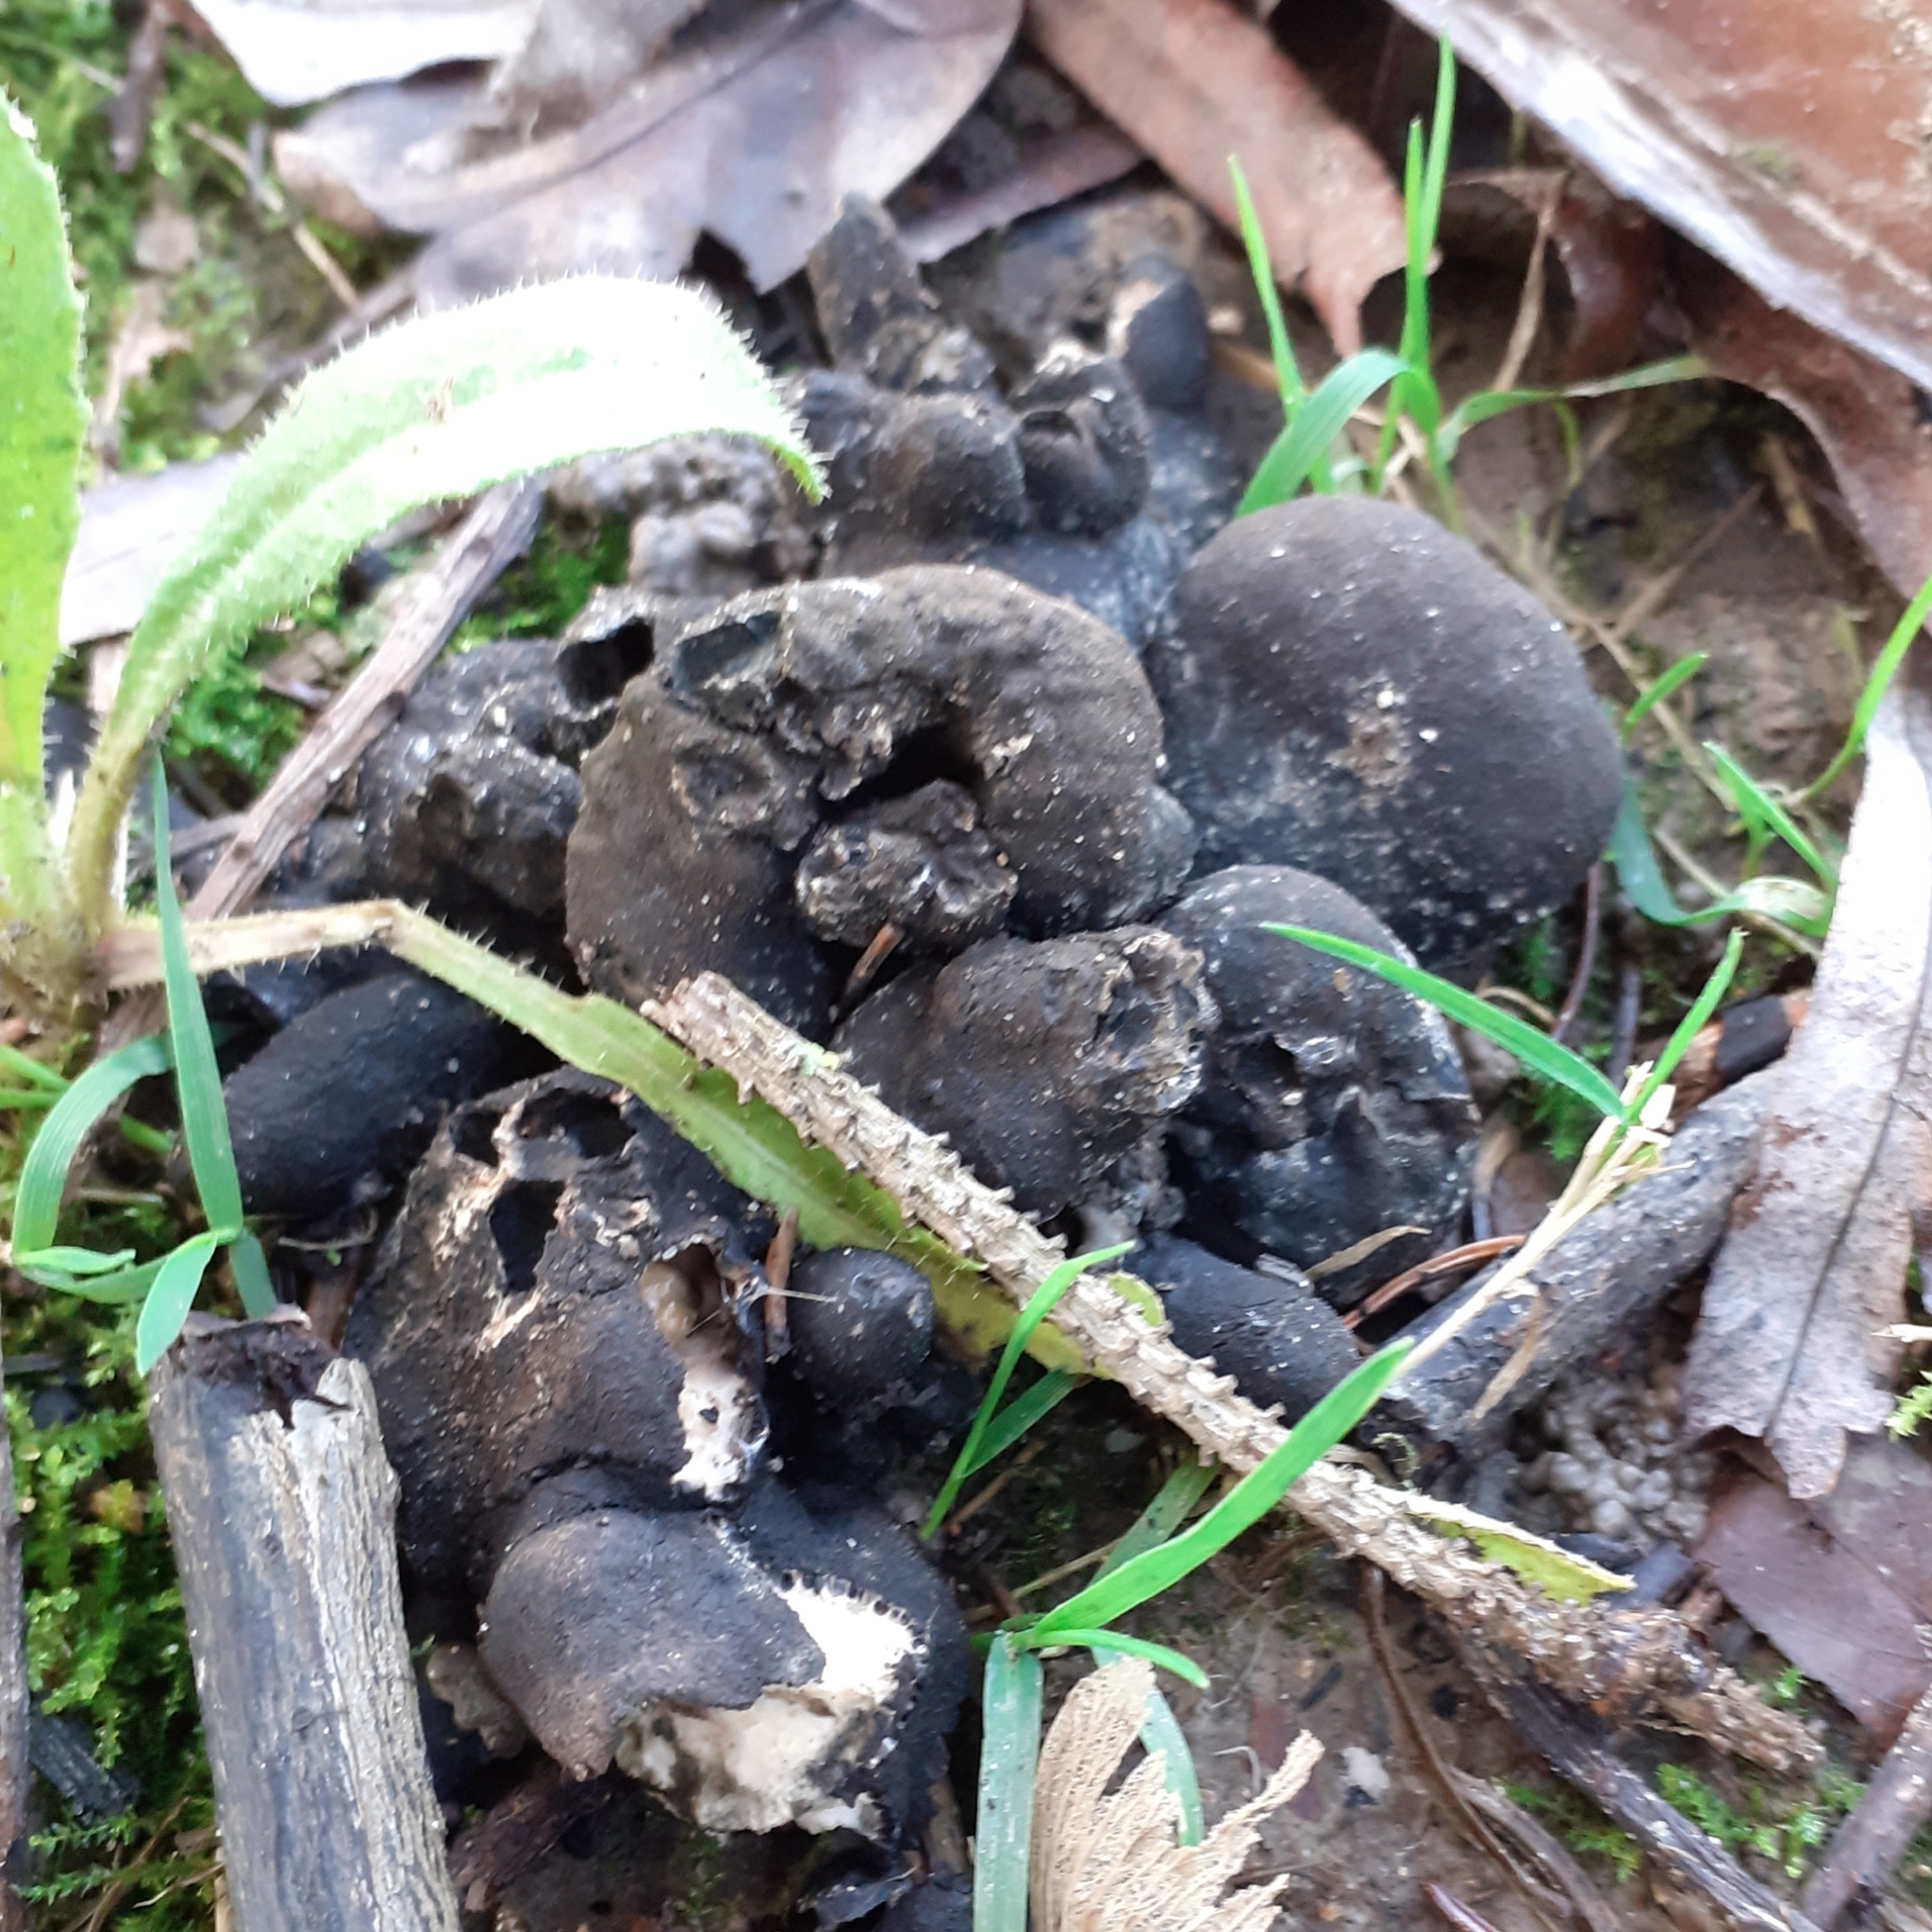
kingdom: Fungi
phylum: Ascomycota
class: Sordariomycetes
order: Xylariales
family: Xylariaceae
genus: Xylaria
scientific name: Xylaria polymorpha
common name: Dead man's fingers
